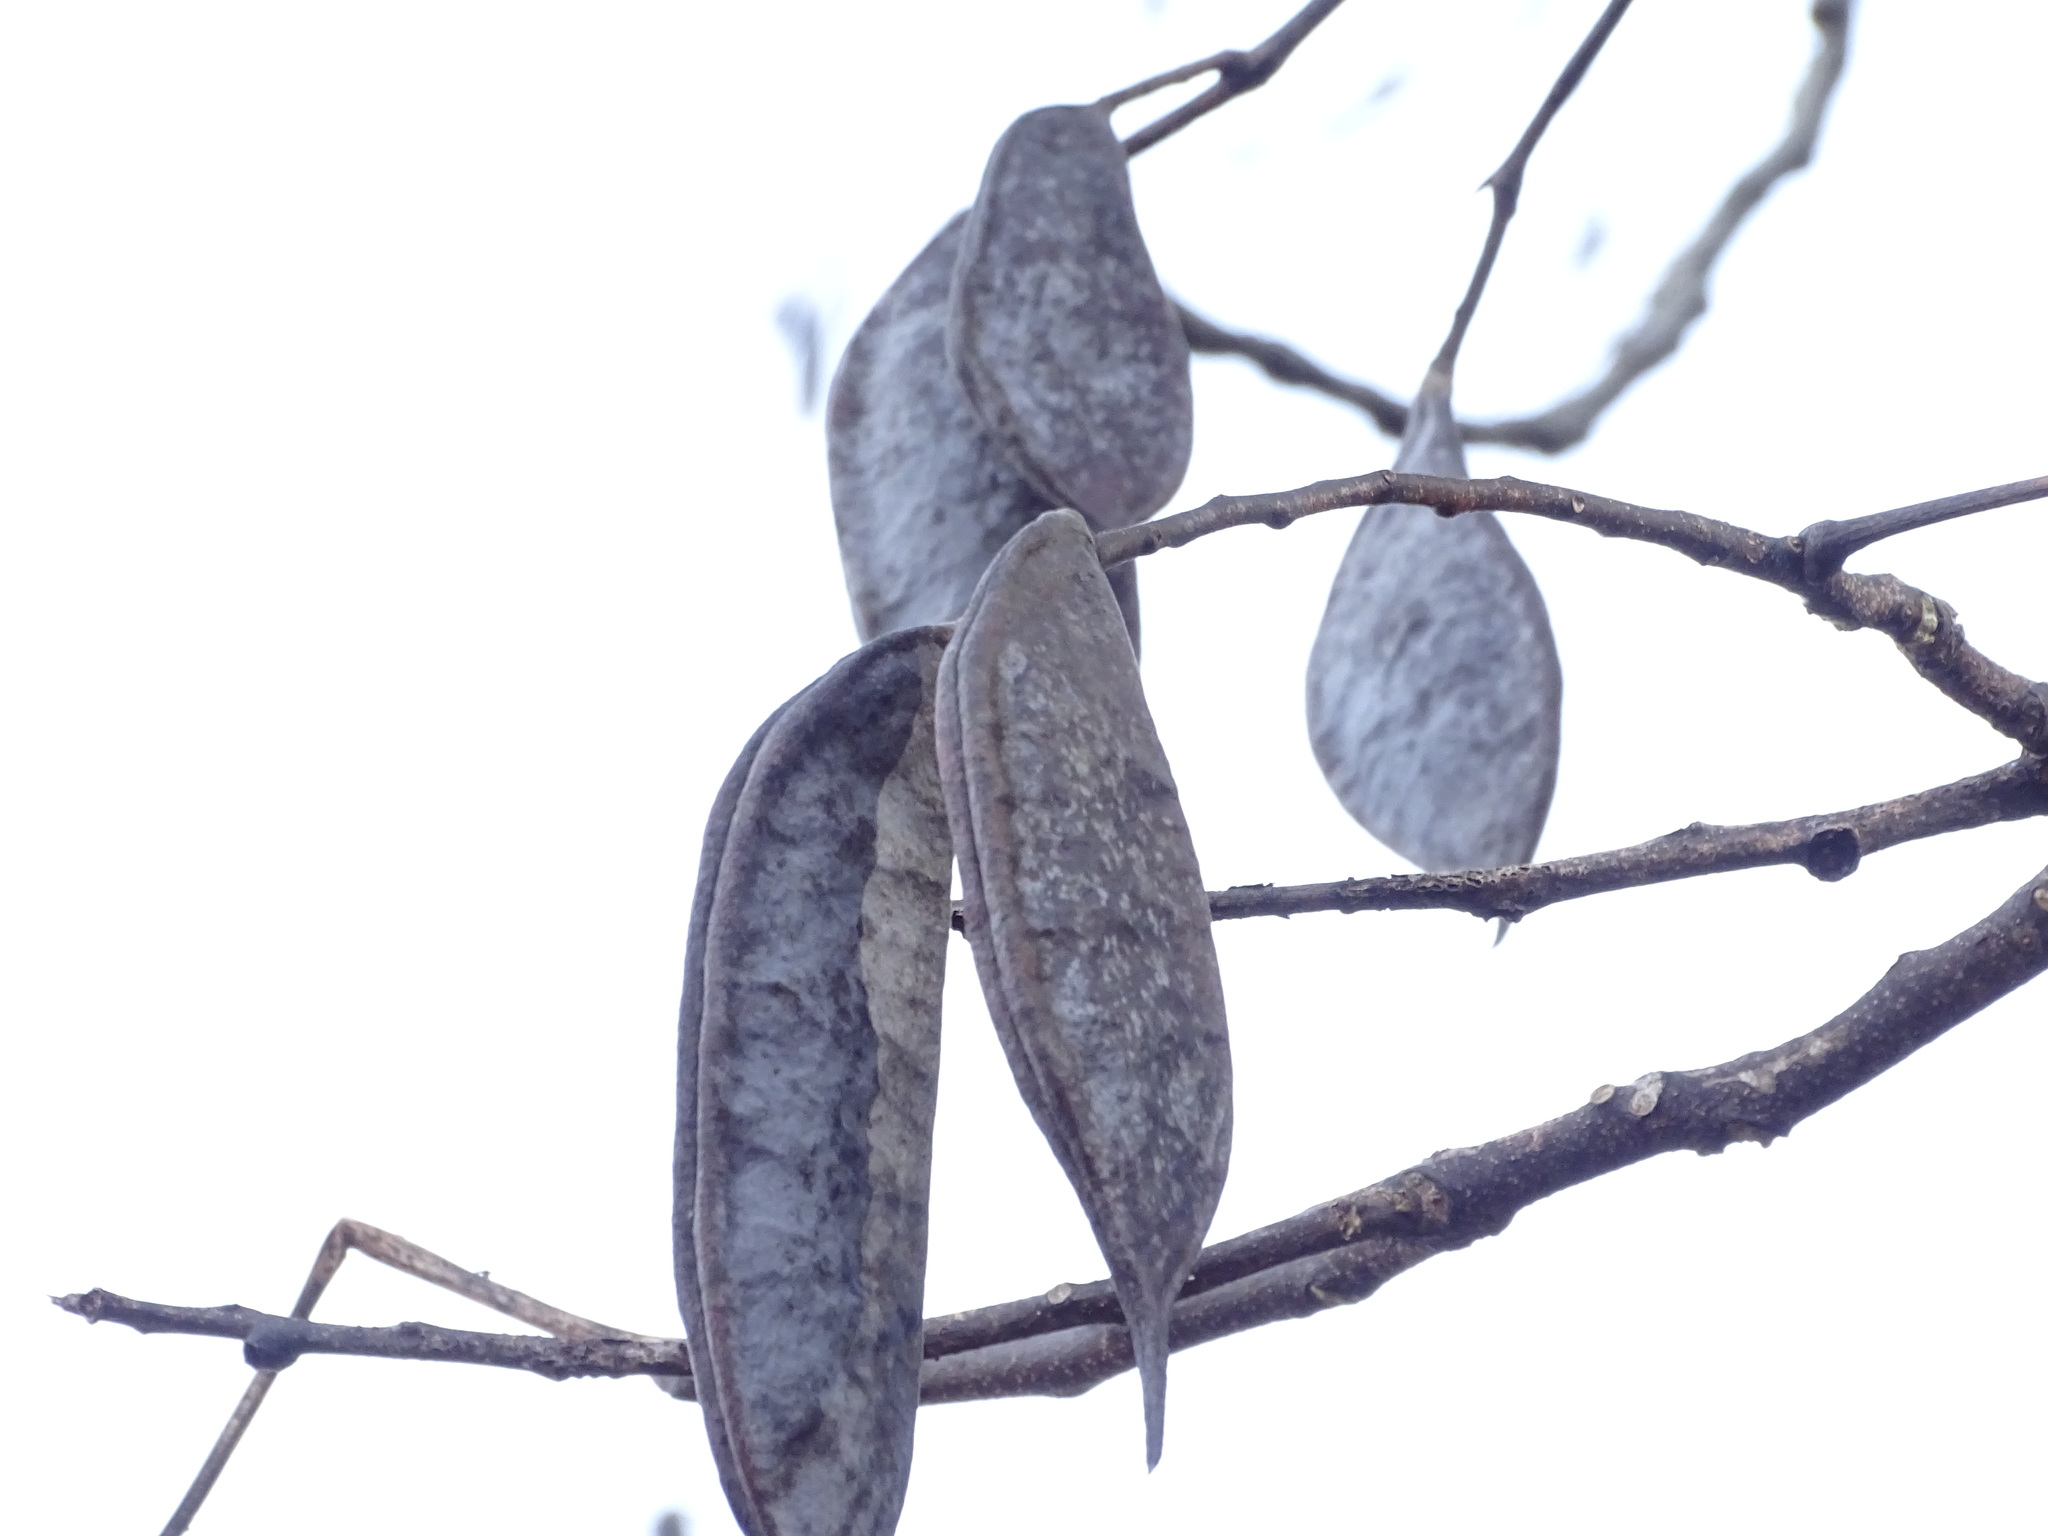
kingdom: Plantae
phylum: Tracheophyta
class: Magnoliopsida
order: Fabales
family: Fabaceae
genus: Gymnocladus
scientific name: Gymnocladus dioicus
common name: Kentucky coffee-tree
